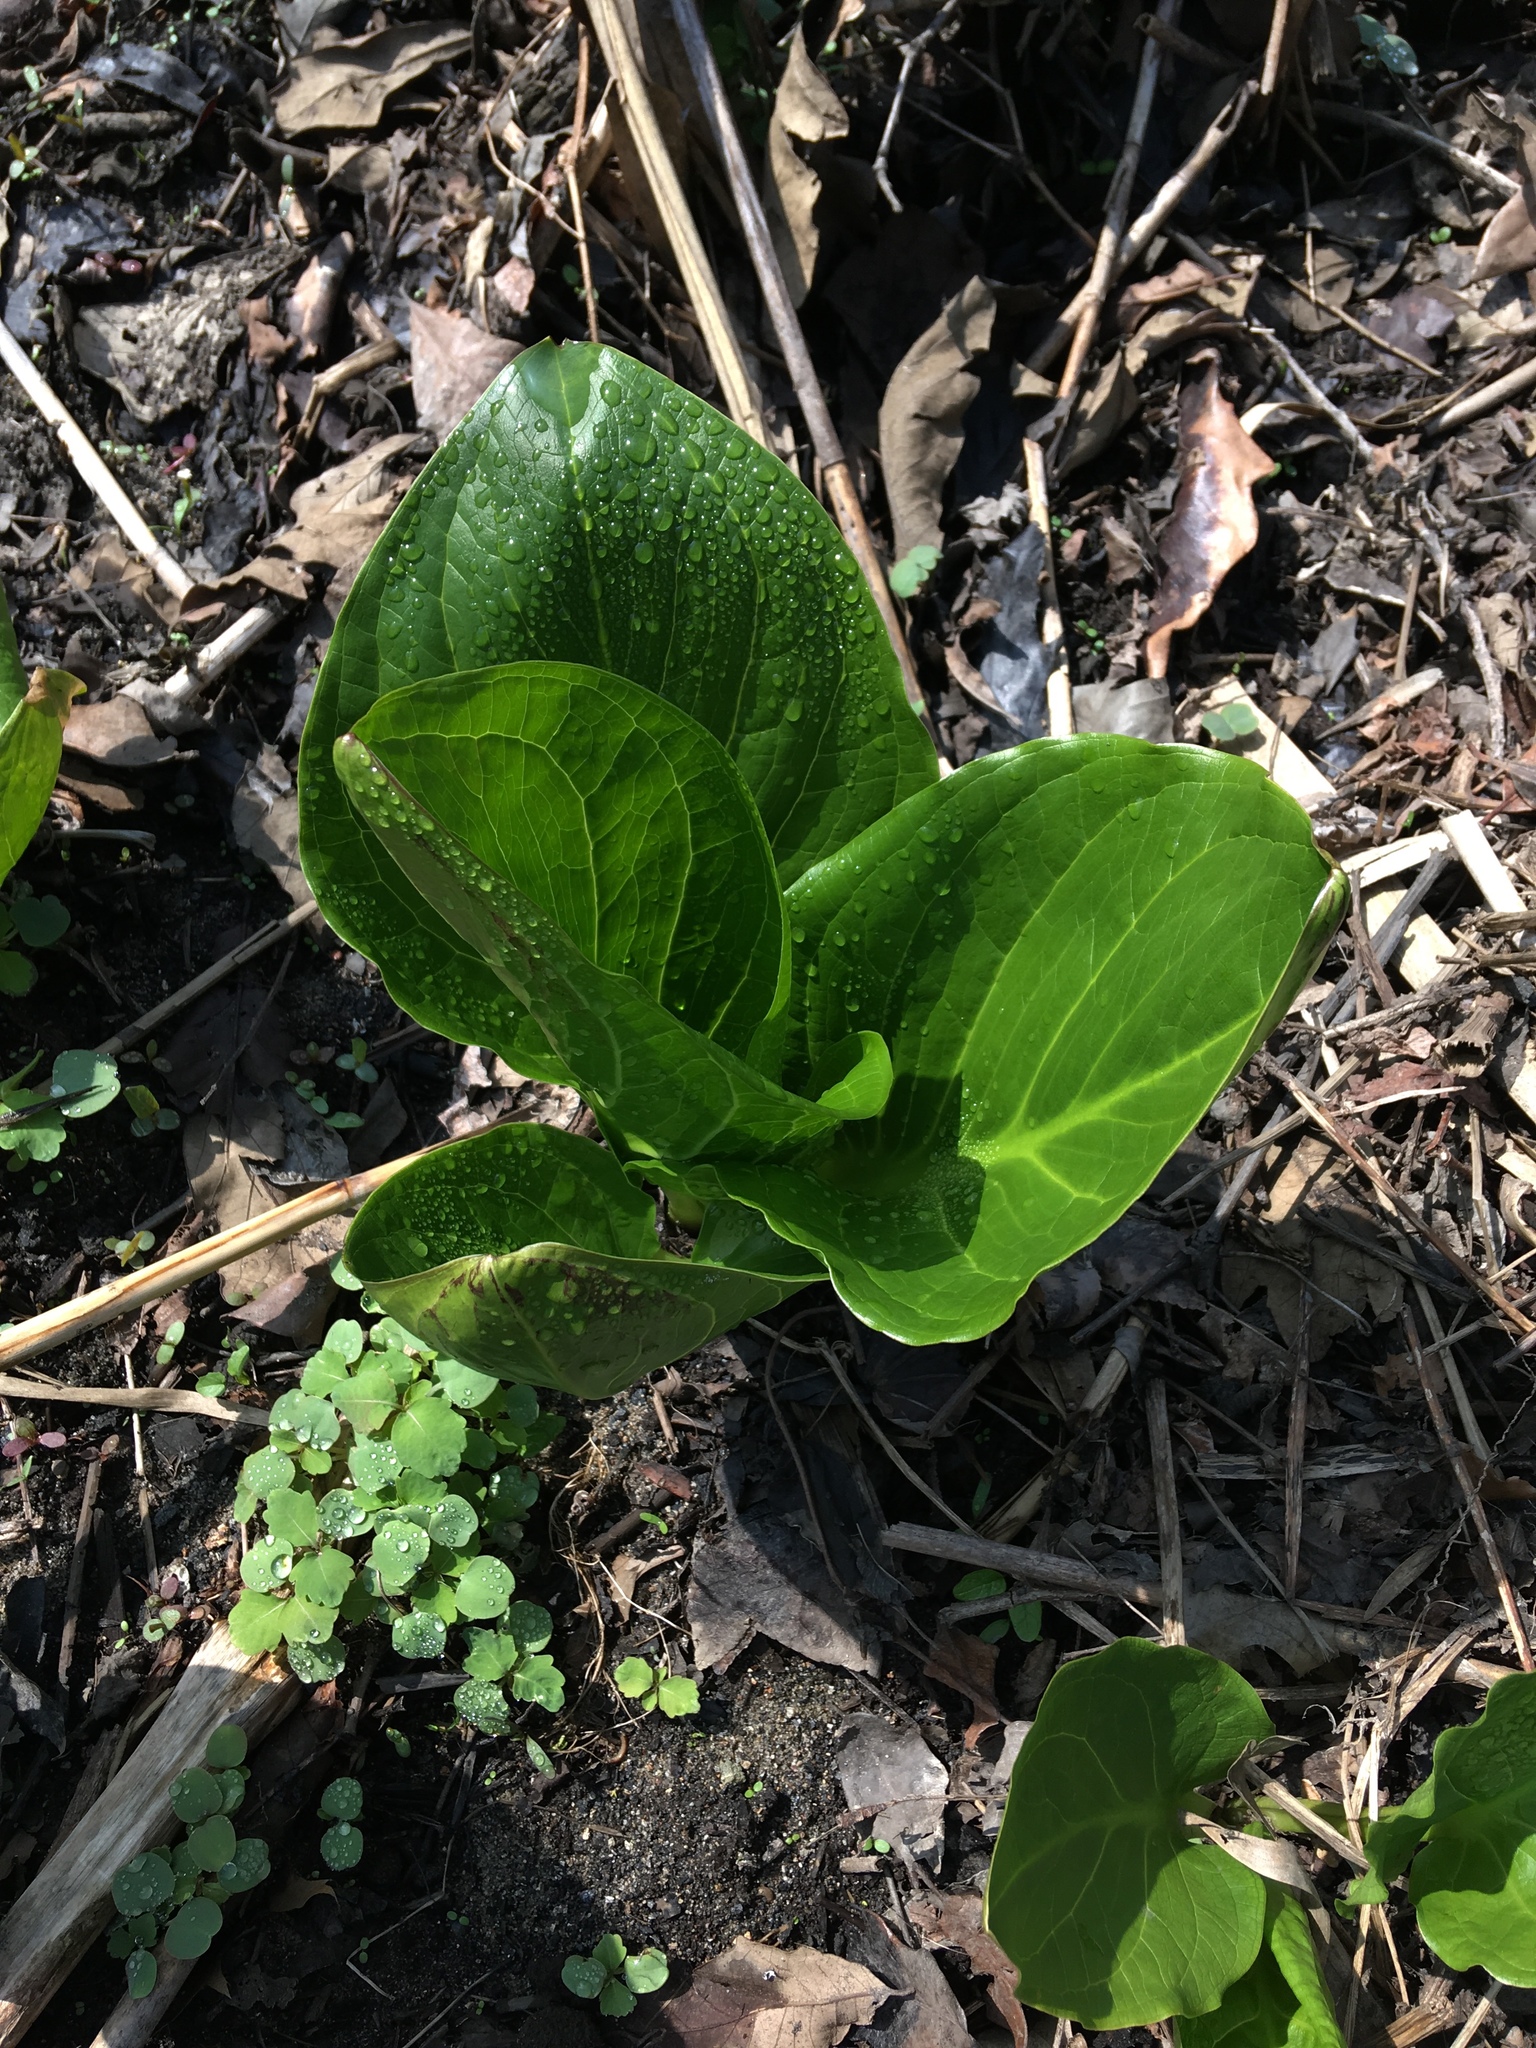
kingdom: Plantae
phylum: Tracheophyta
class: Liliopsida
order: Alismatales
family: Araceae
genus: Symplocarpus
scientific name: Symplocarpus foetidus
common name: Eastern skunk cabbage
